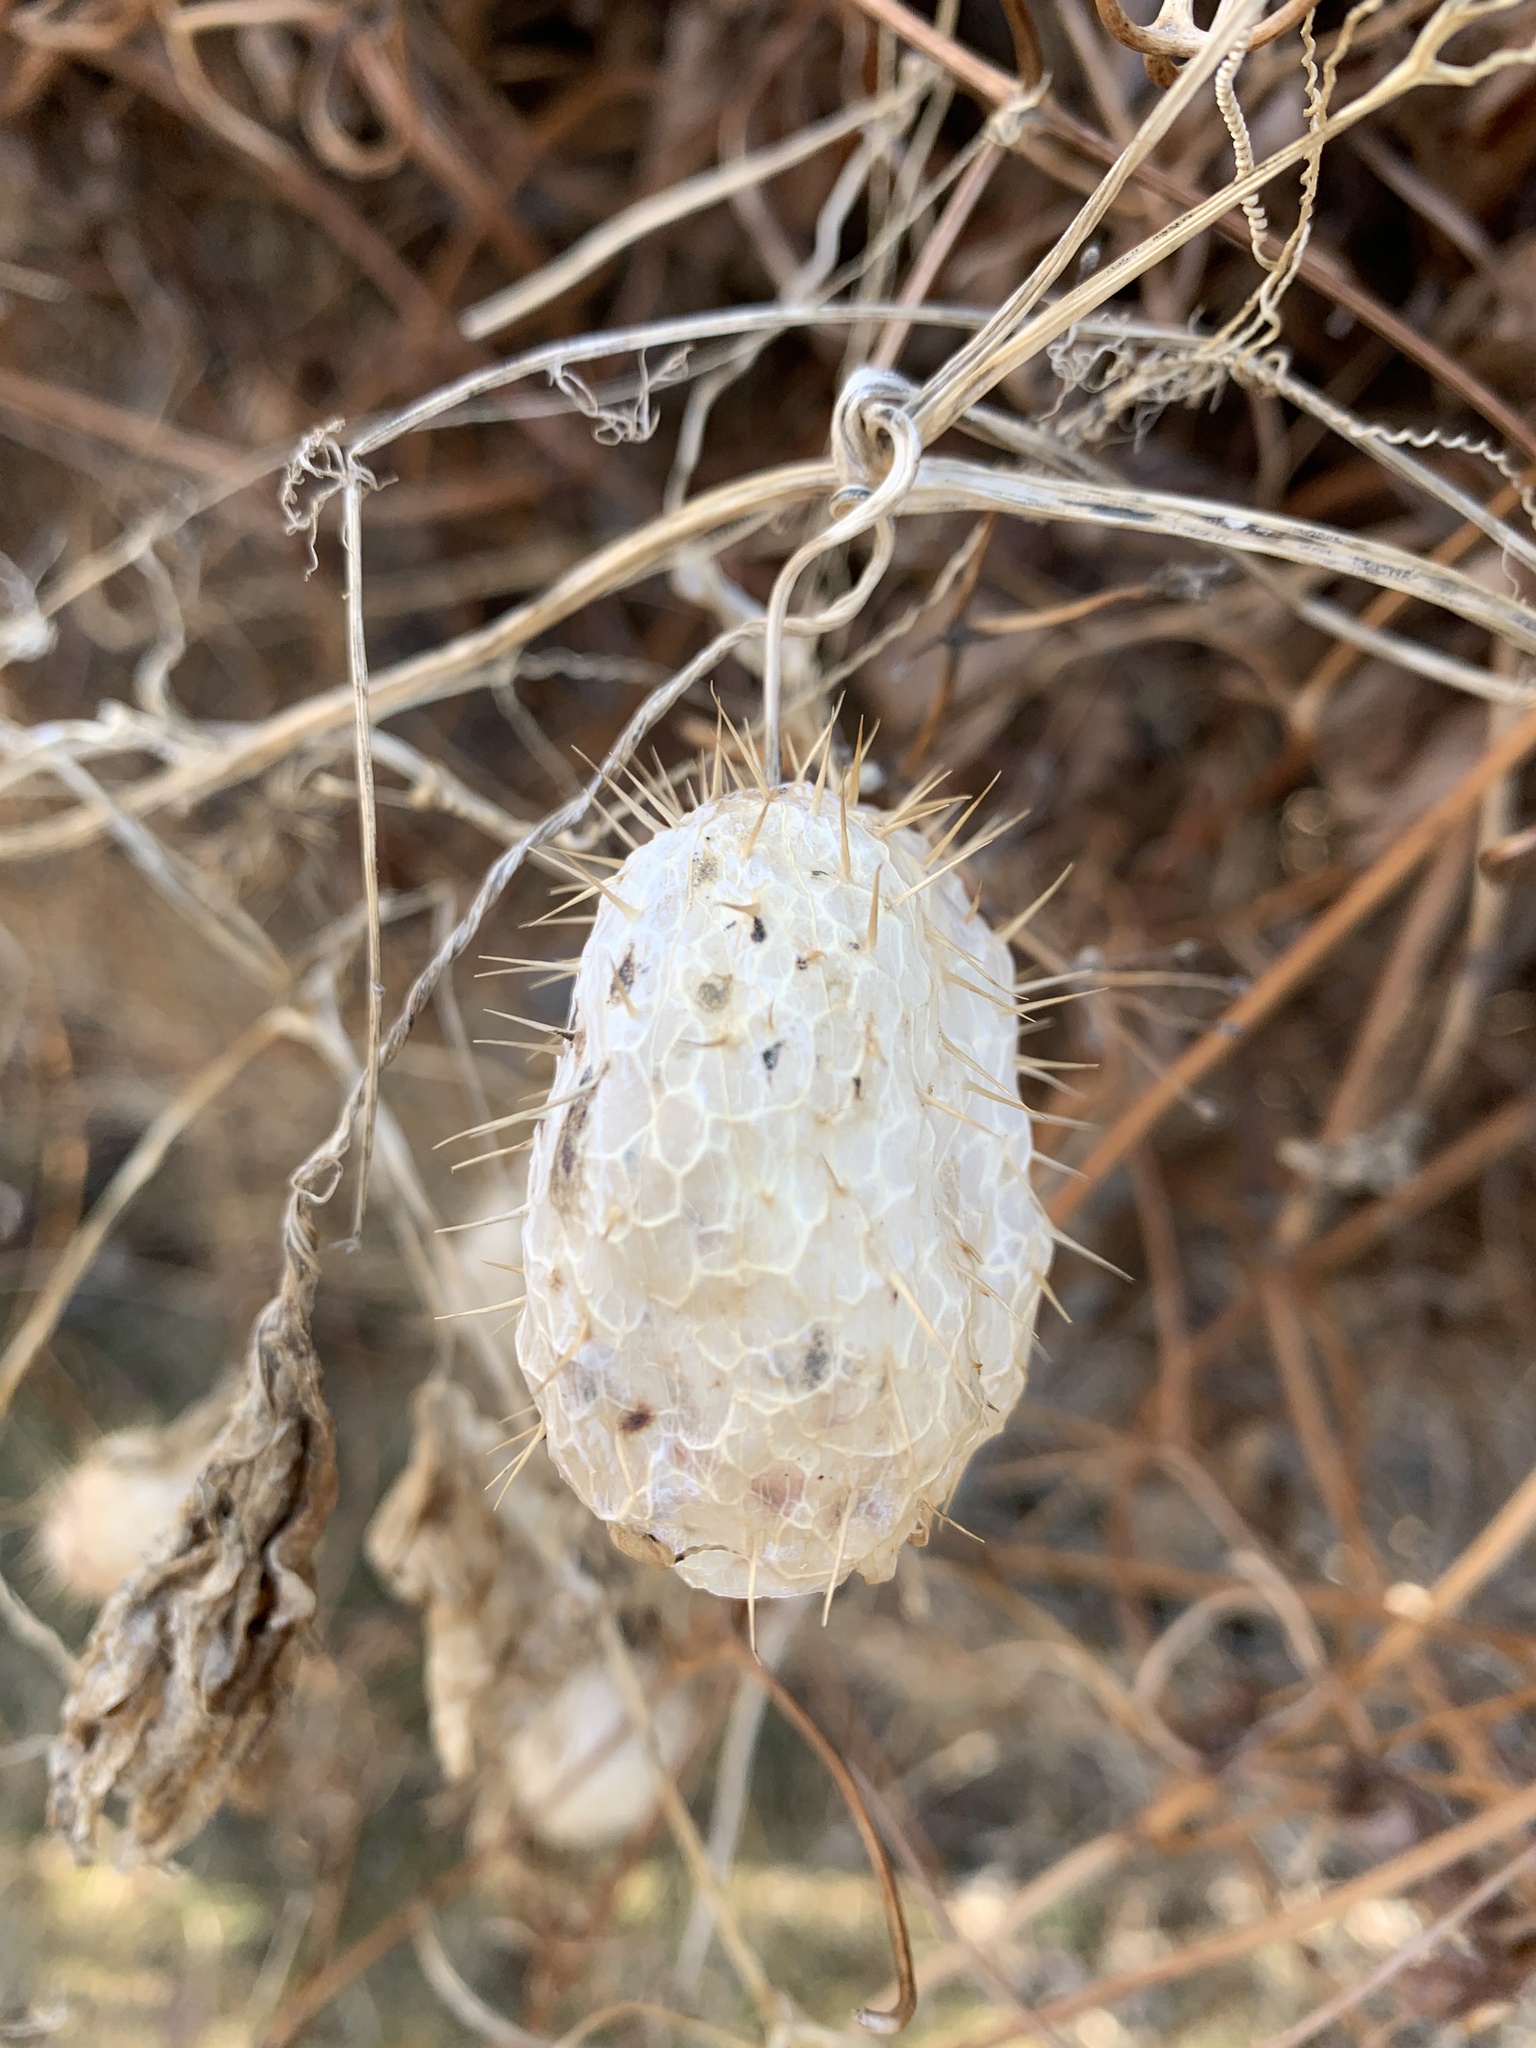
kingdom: Plantae
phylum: Tracheophyta
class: Magnoliopsida
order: Cucurbitales
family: Cucurbitaceae
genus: Echinocystis
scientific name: Echinocystis lobata
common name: Wild cucumber
